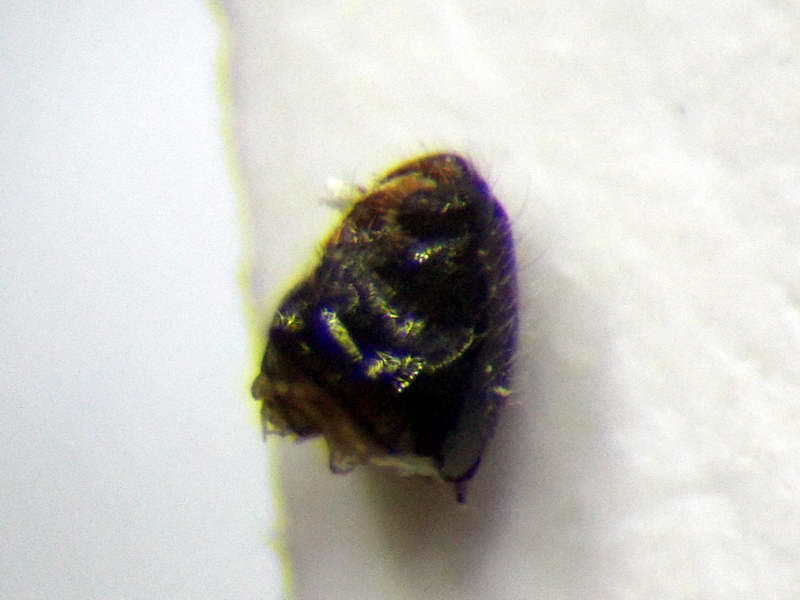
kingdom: Animalia
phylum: Arthropoda
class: Insecta
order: Hemiptera
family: Miridae
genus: Deraeocoris
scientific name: Deraeocoris serenus
